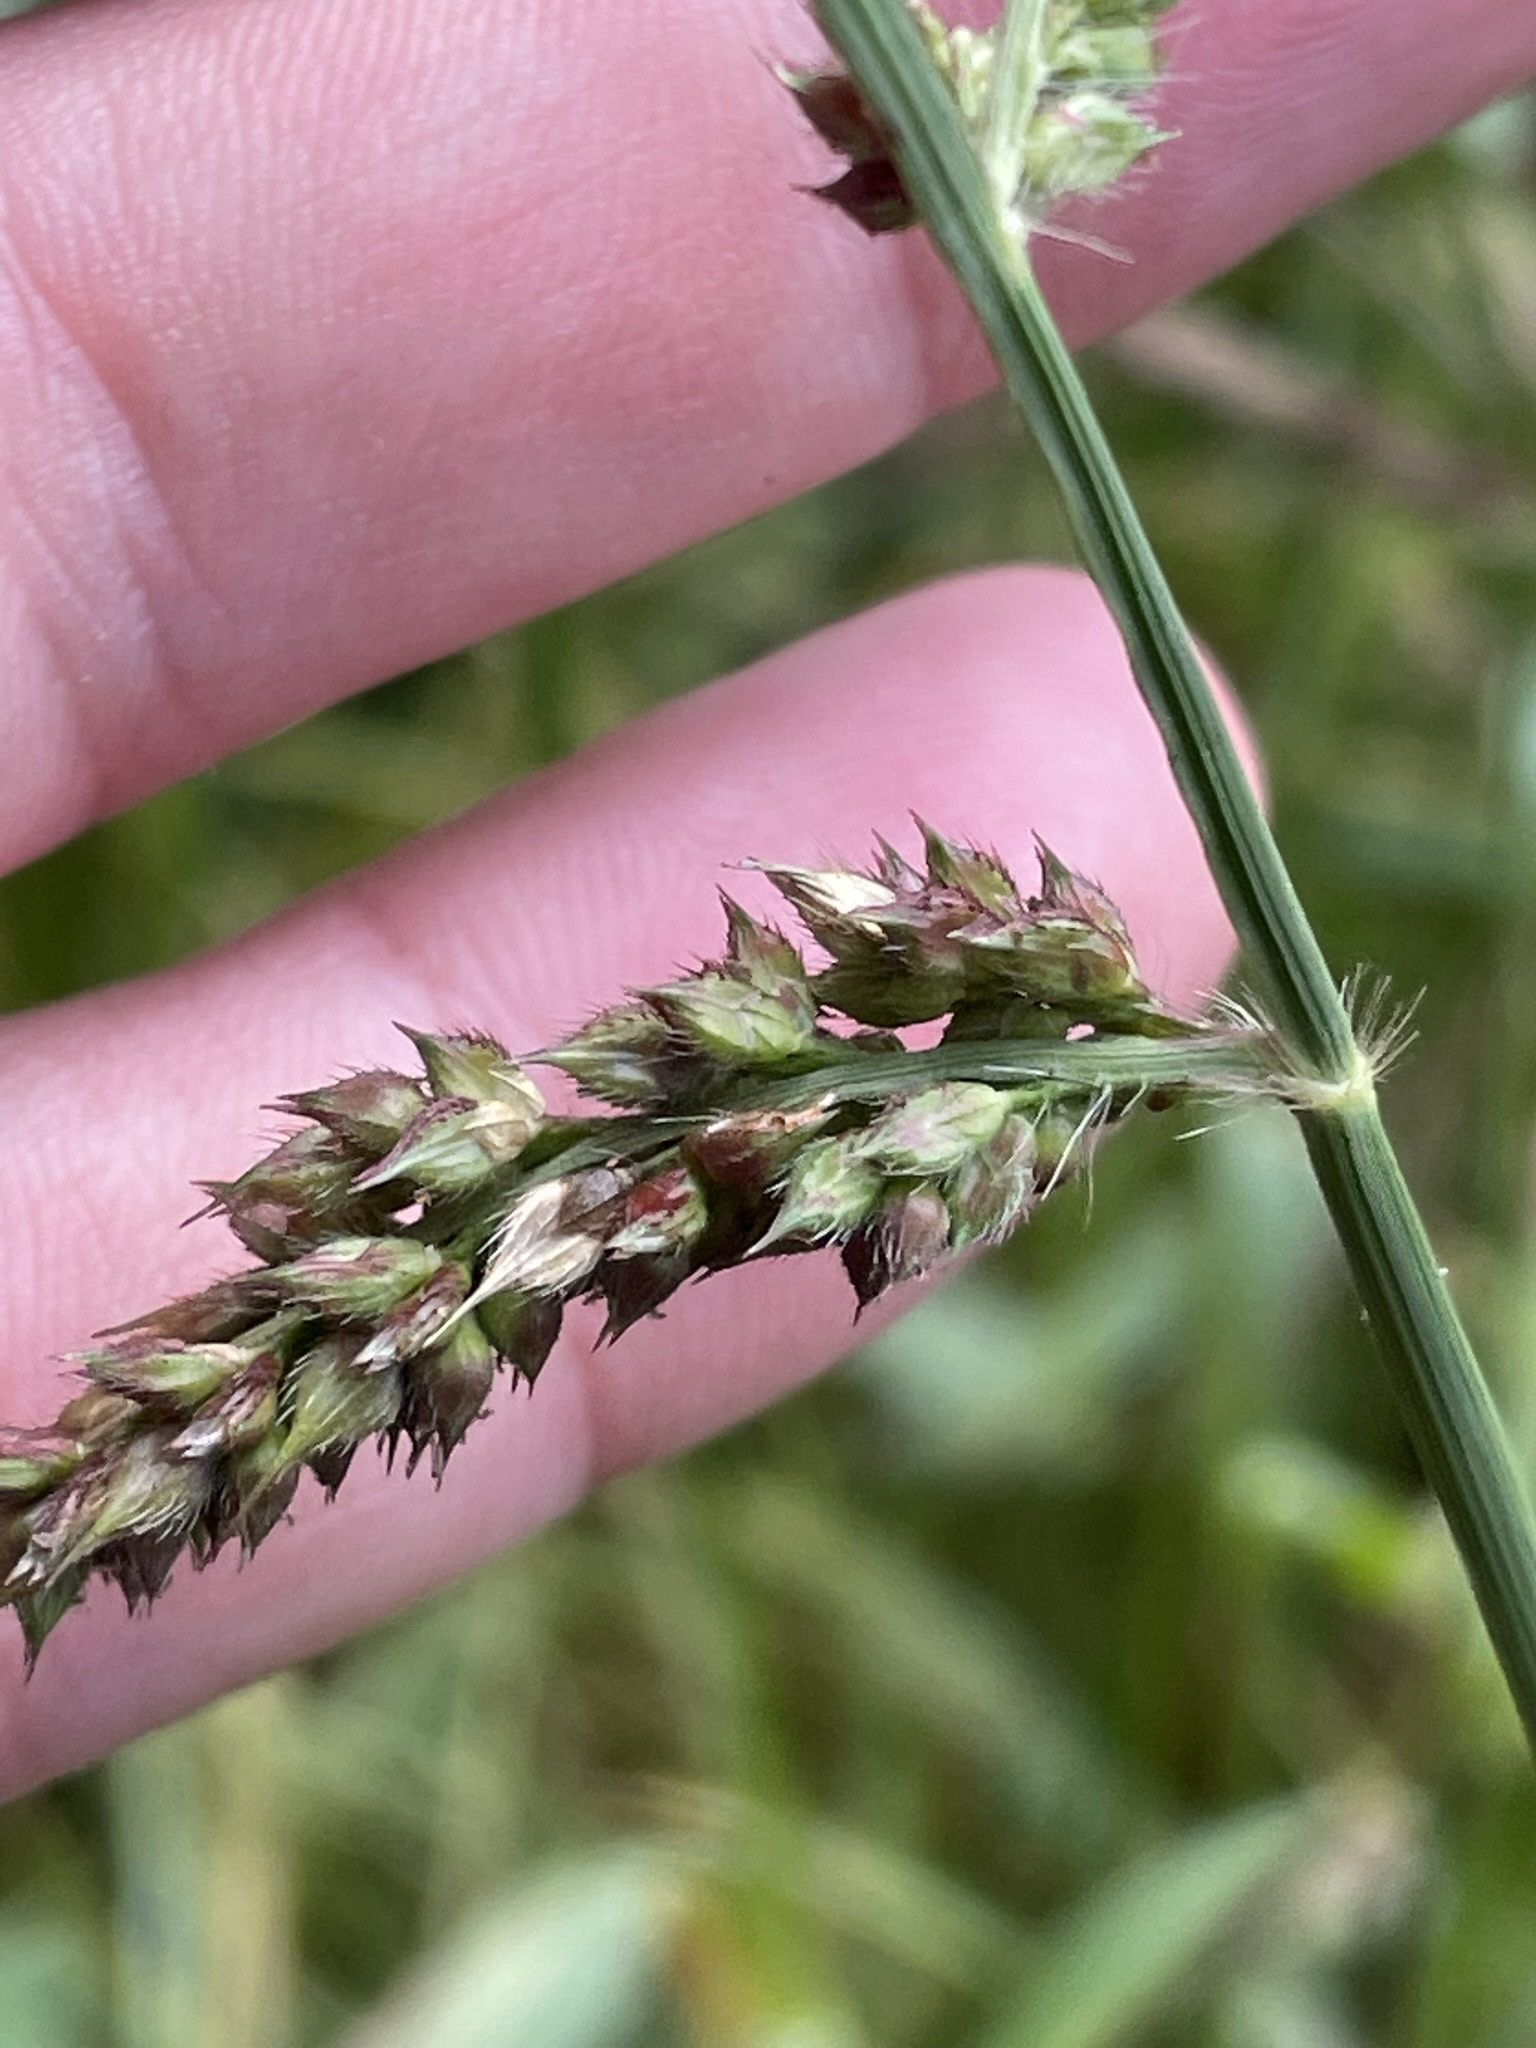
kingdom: Plantae
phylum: Tracheophyta
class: Liliopsida
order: Poales
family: Poaceae
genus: Echinochloa
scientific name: Echinochloa crus-galli
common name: Cockspur
